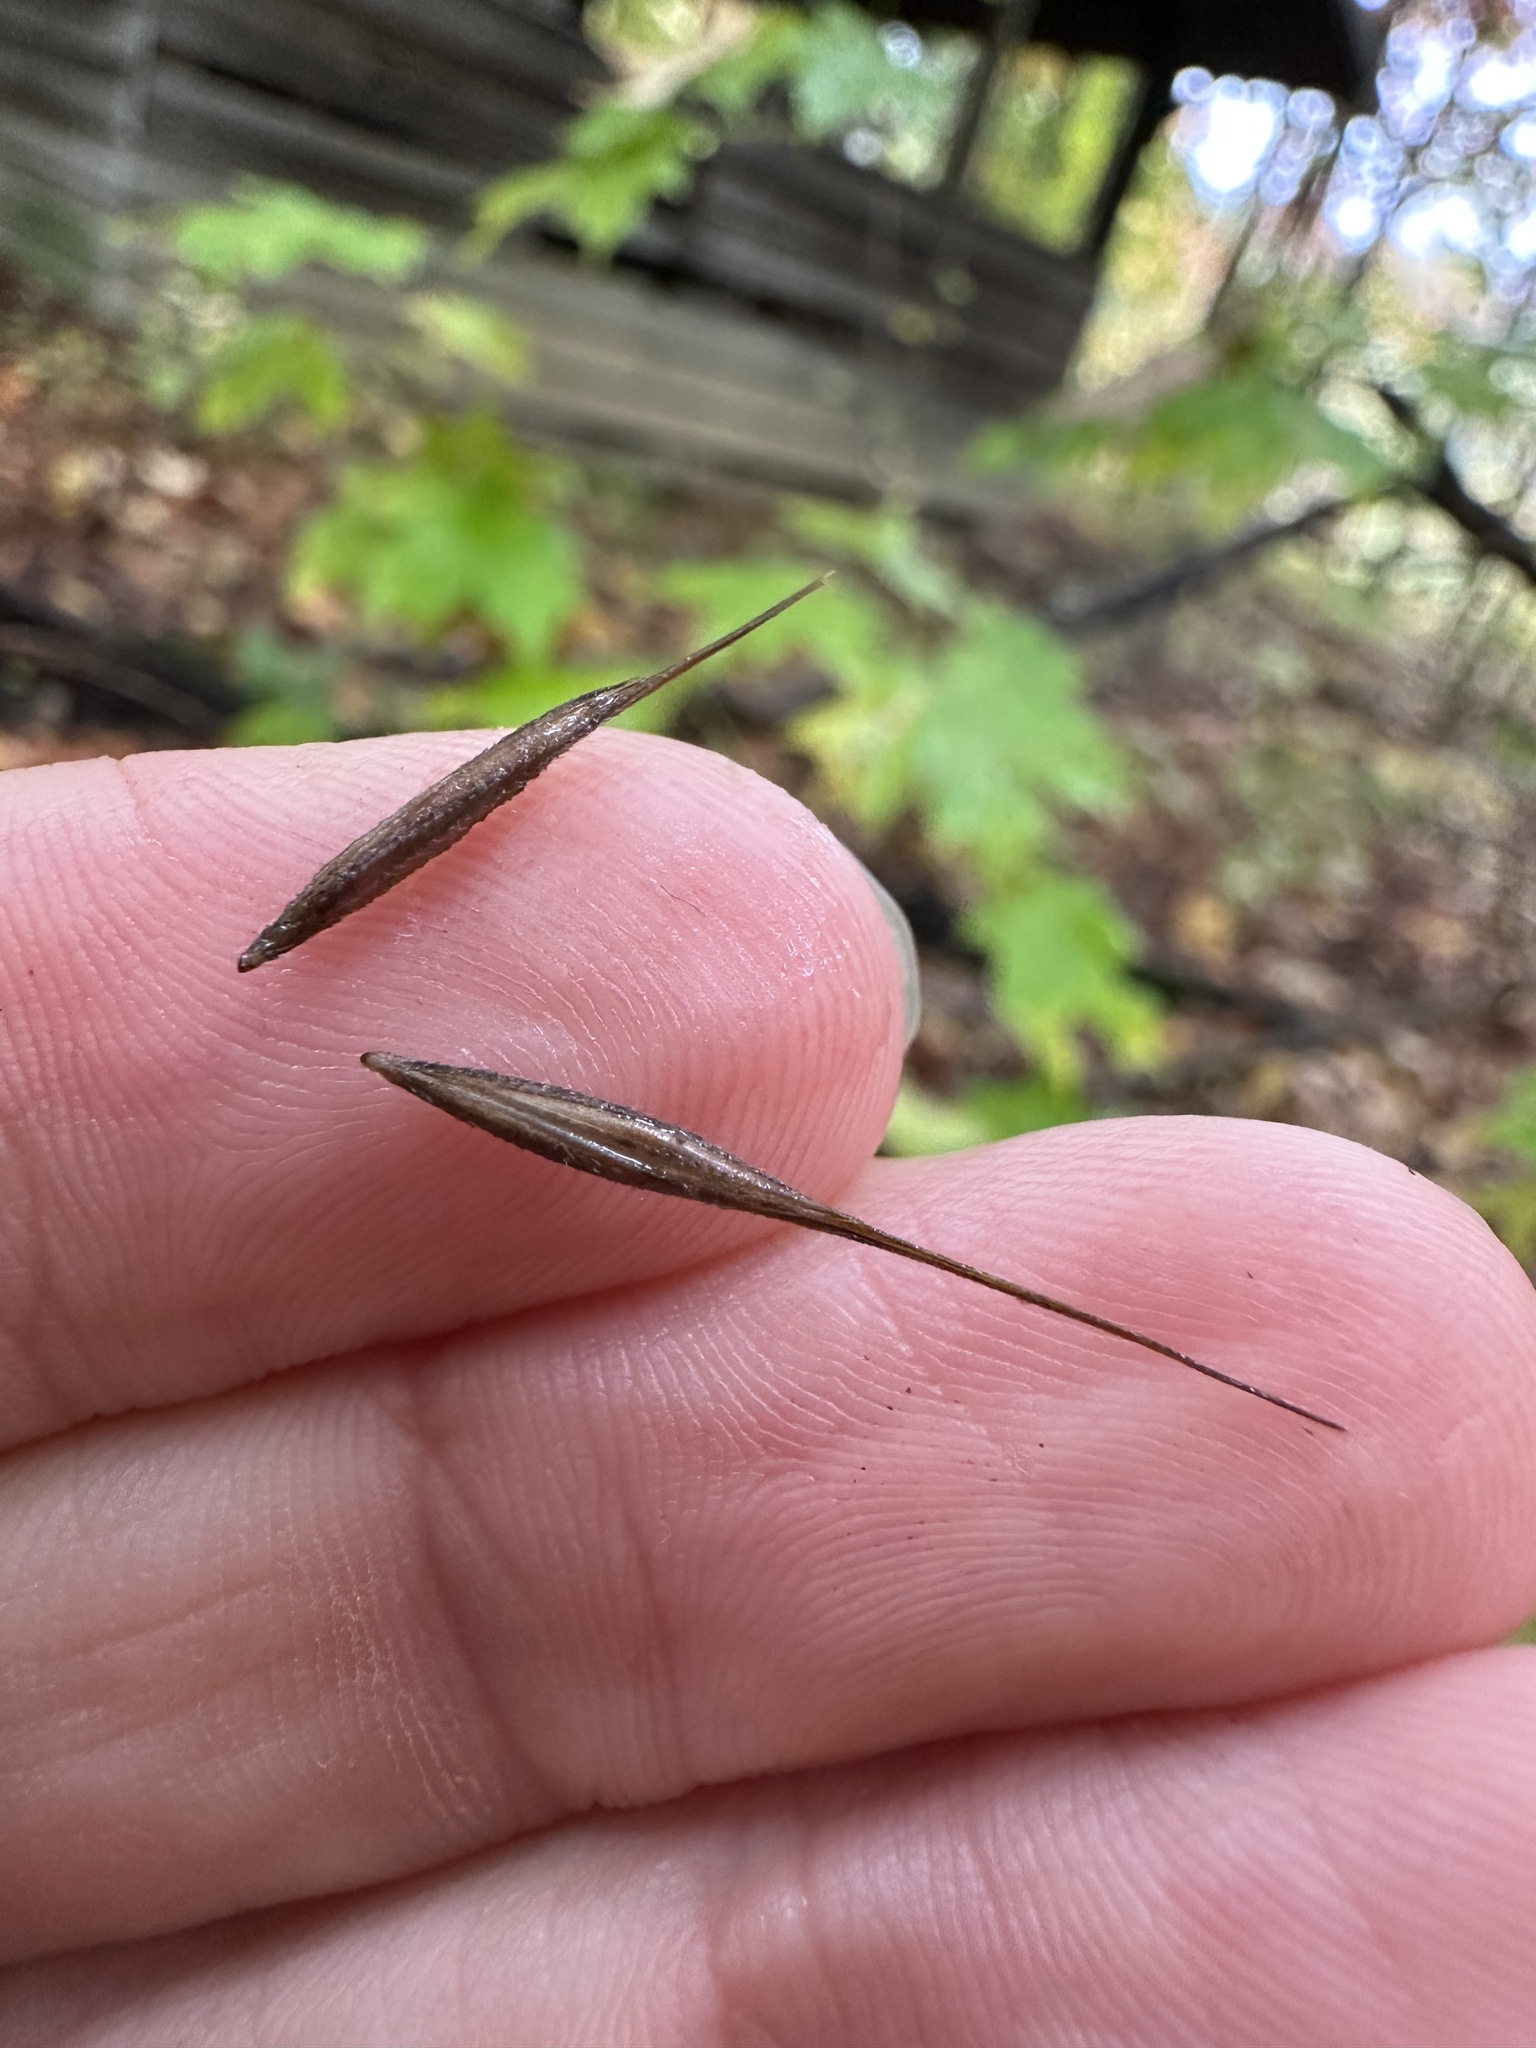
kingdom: Plantae
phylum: Tracheophyta
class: Liliopsida
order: Poales
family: Poaceae
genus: Brachyelytrum
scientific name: Brachyelytrum erectum
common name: Bearded shorthusk
